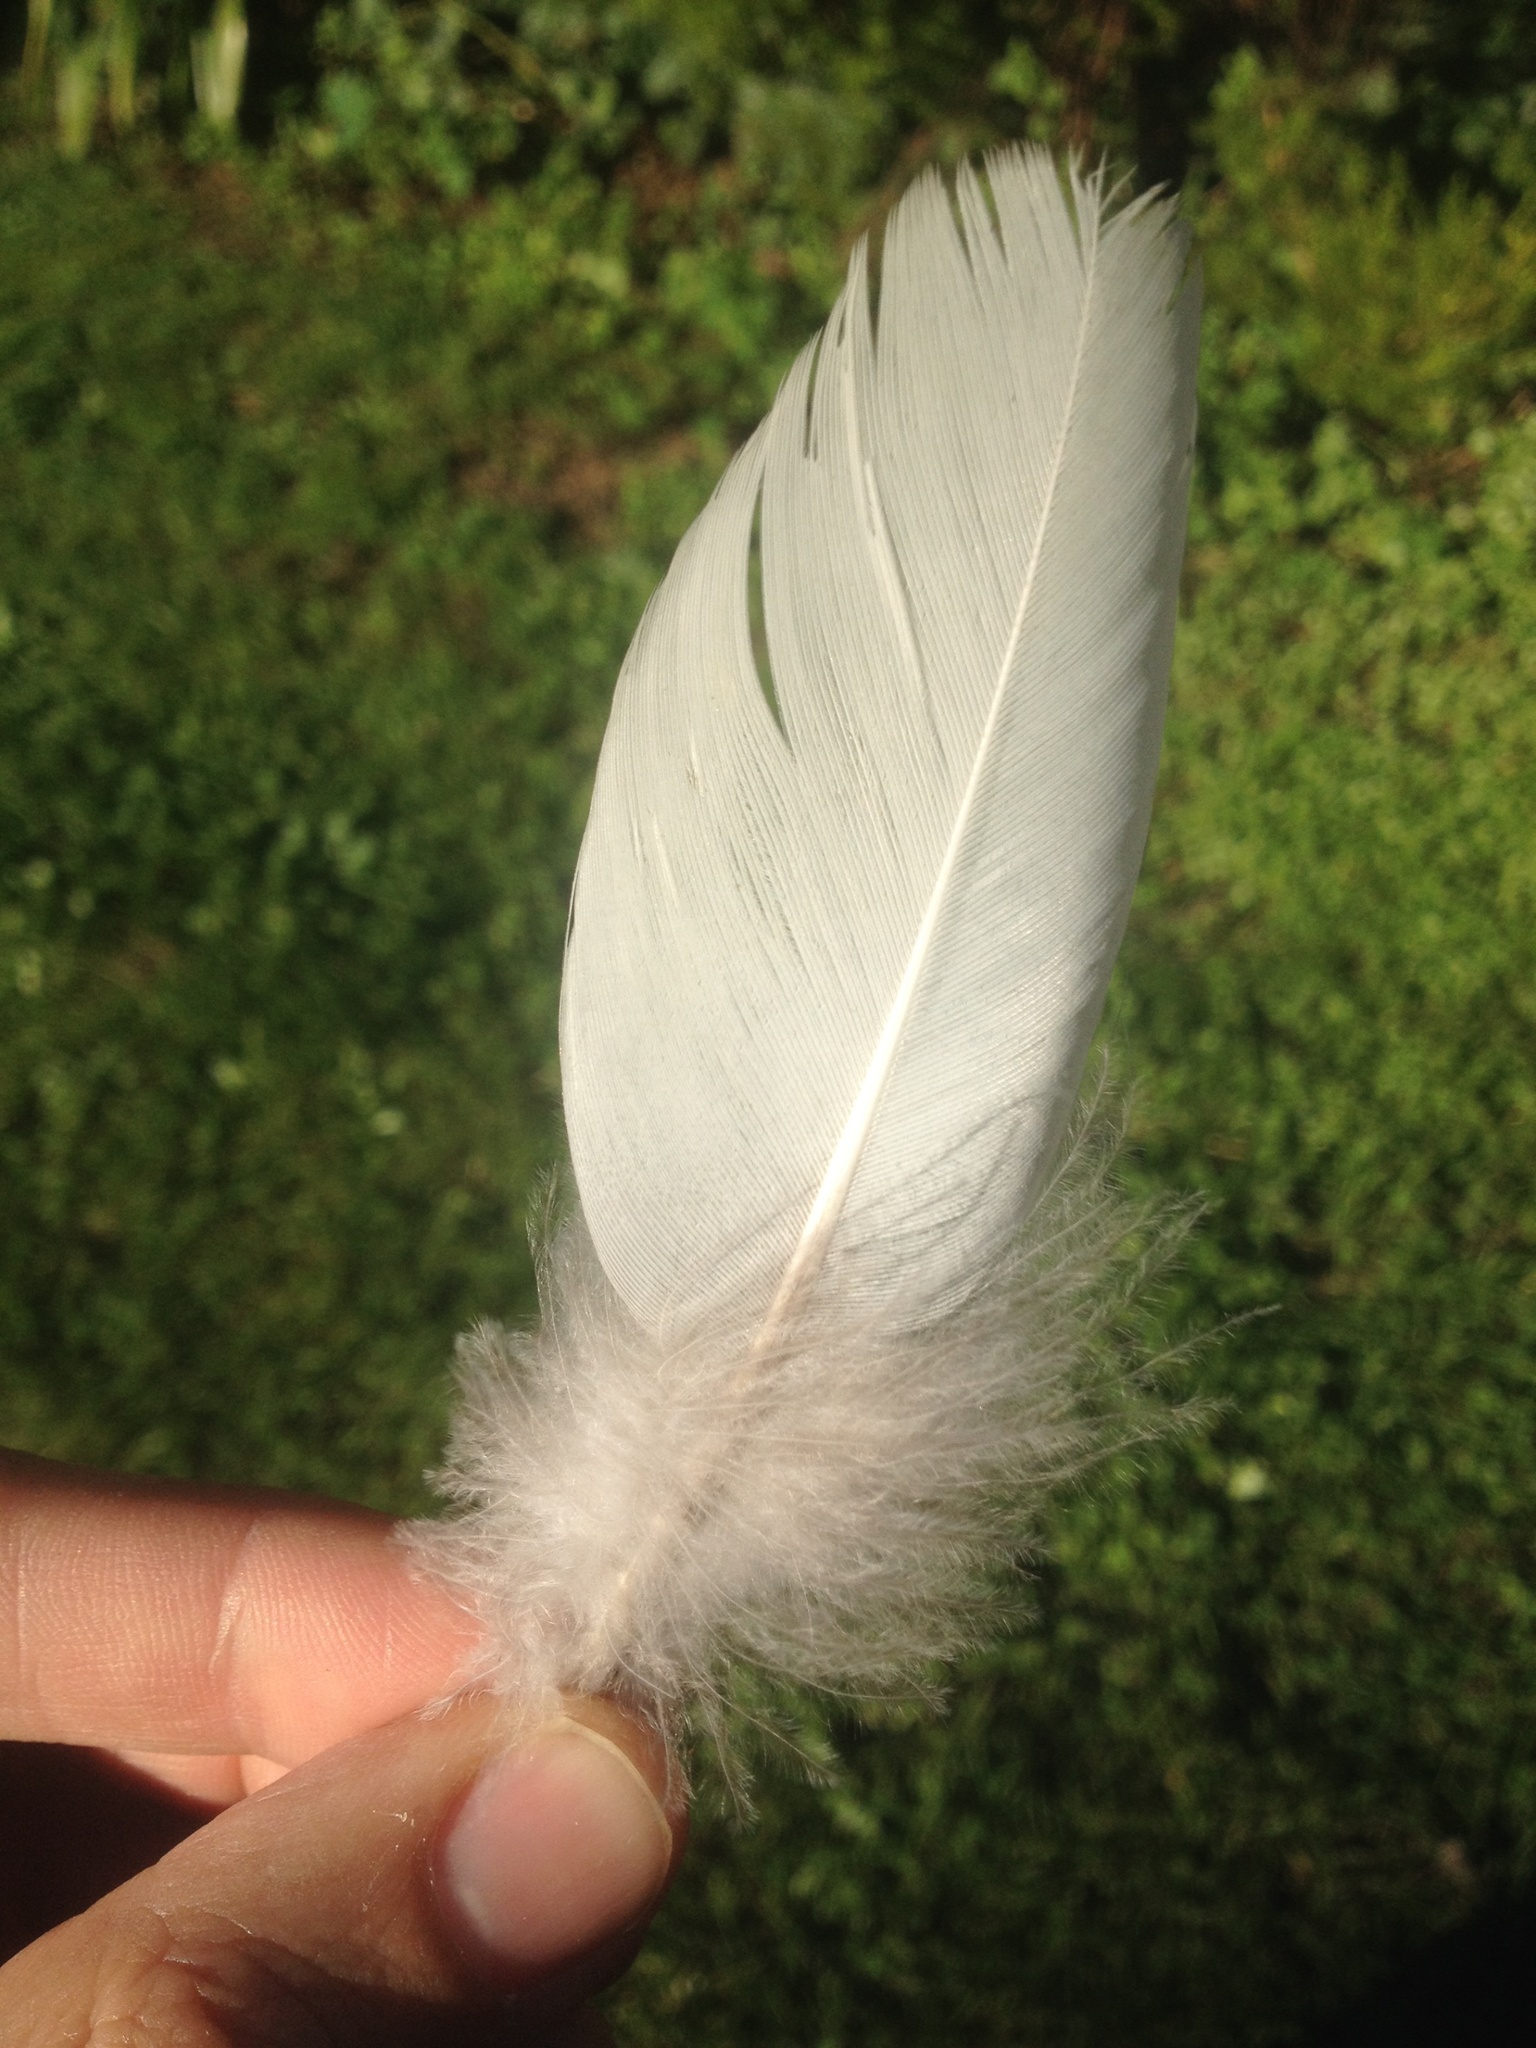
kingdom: Animalia
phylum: Chordata
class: Aves
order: Columbiformes
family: Columbidae
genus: Hemiphaga
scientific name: Hemiphaga novaeseelandiae
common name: New zealand pigeon
